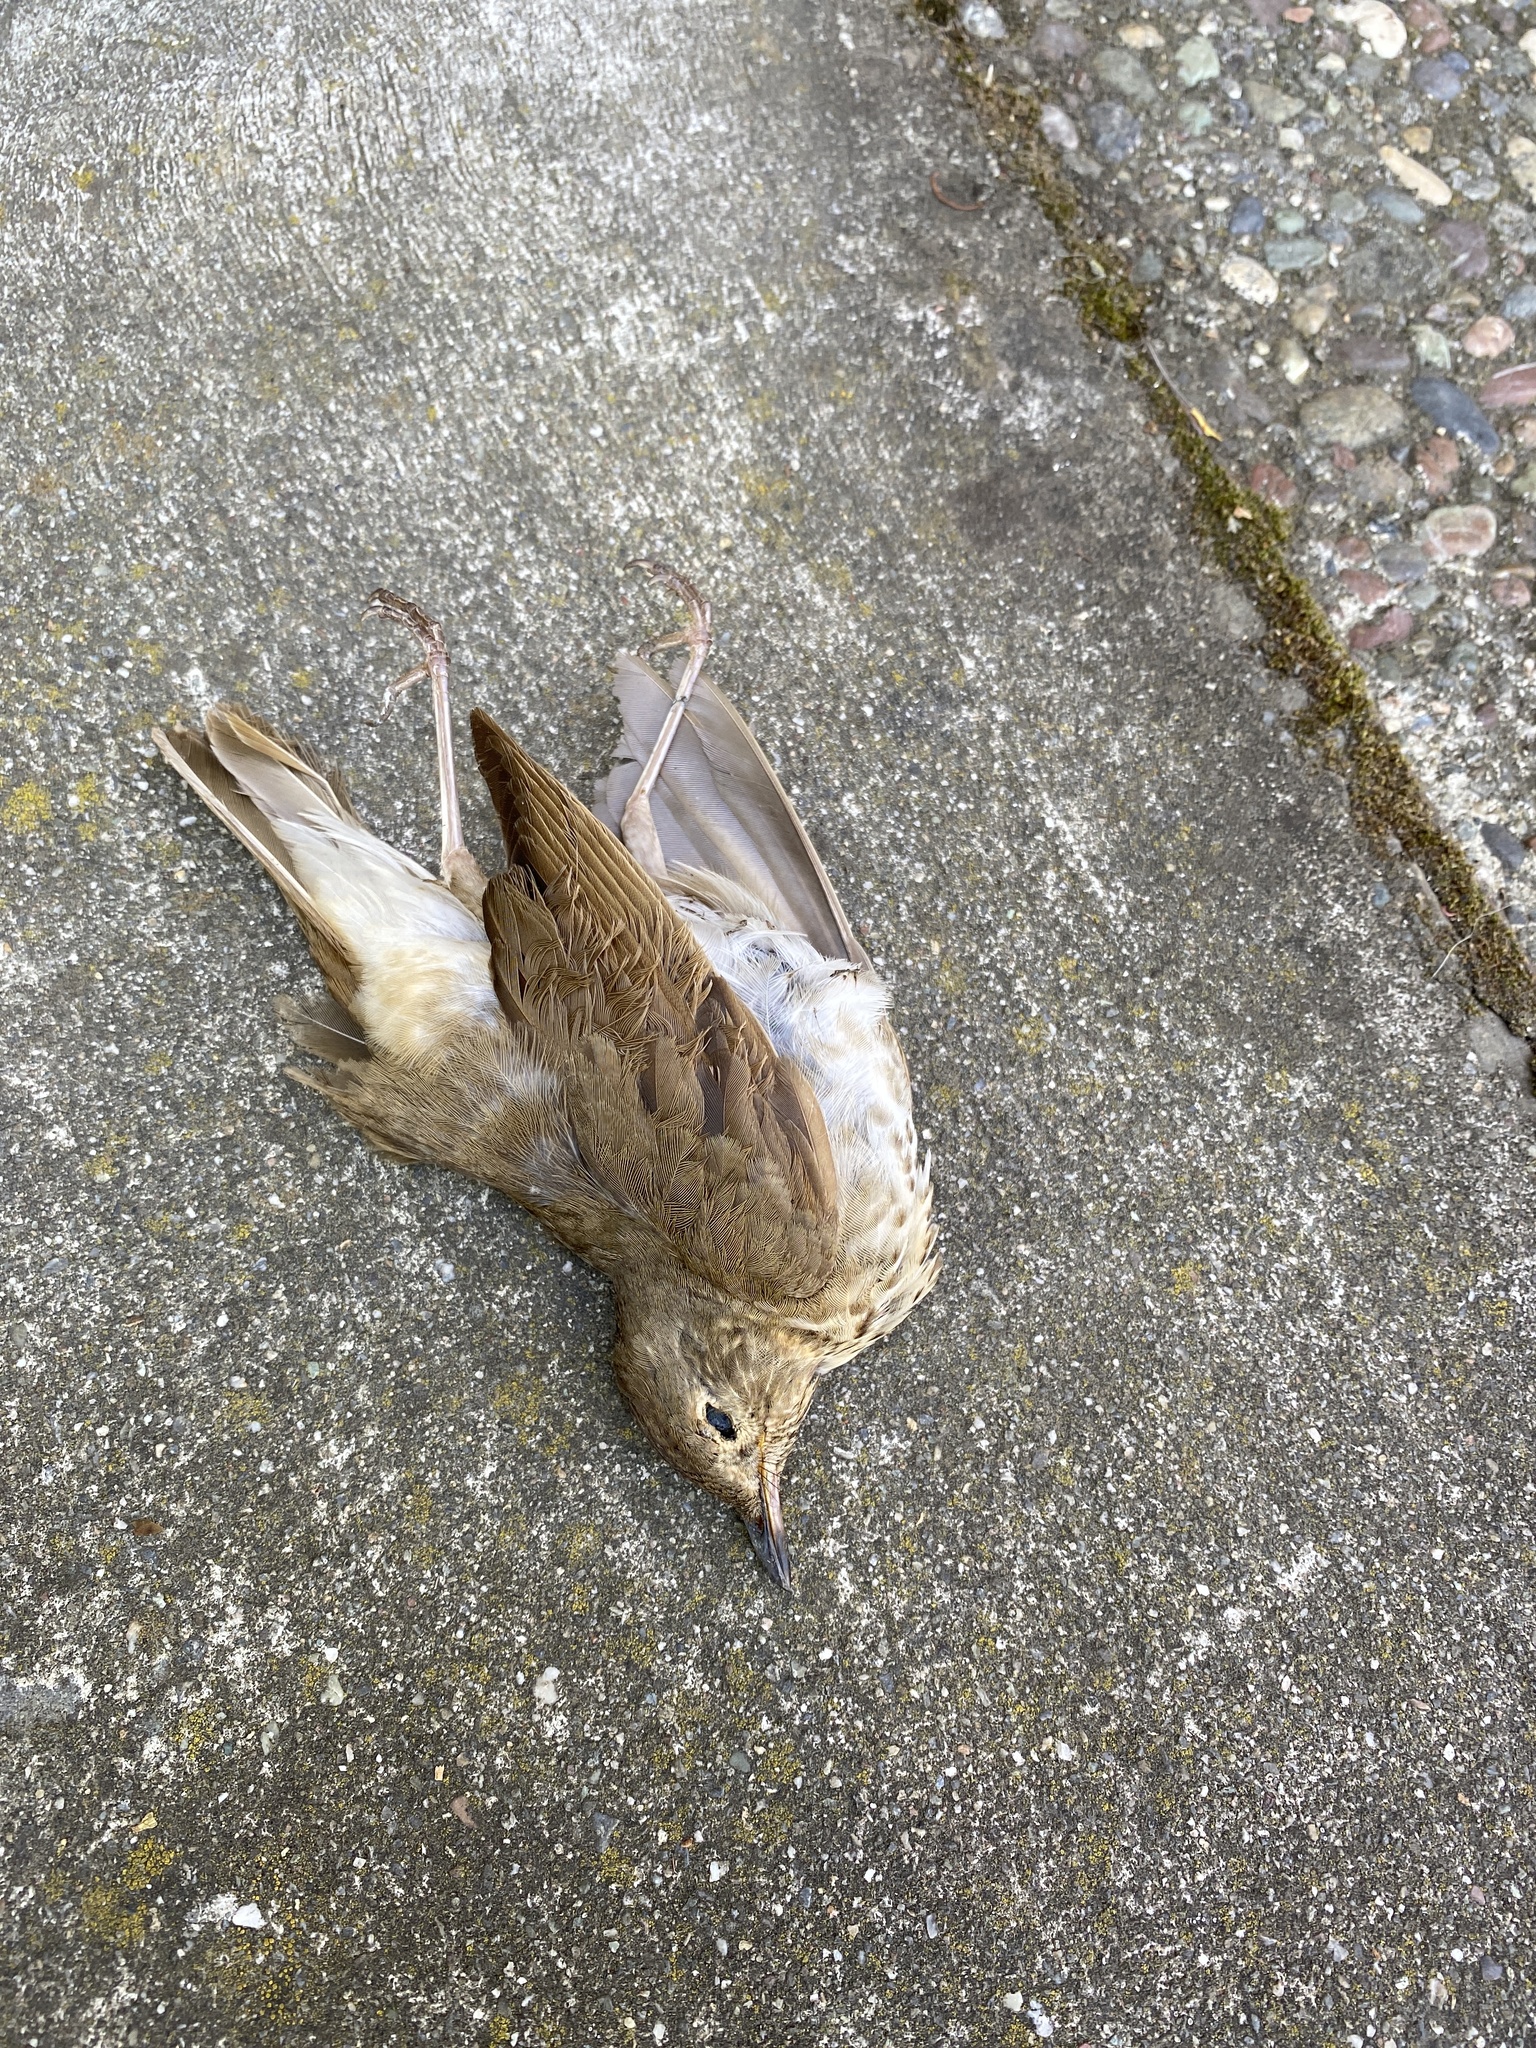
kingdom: Animalia
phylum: Chordata
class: Aves
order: Passeriformes
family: Turdidae
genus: Catharus
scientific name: Catharus ustulatus
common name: Swainson's thrush
